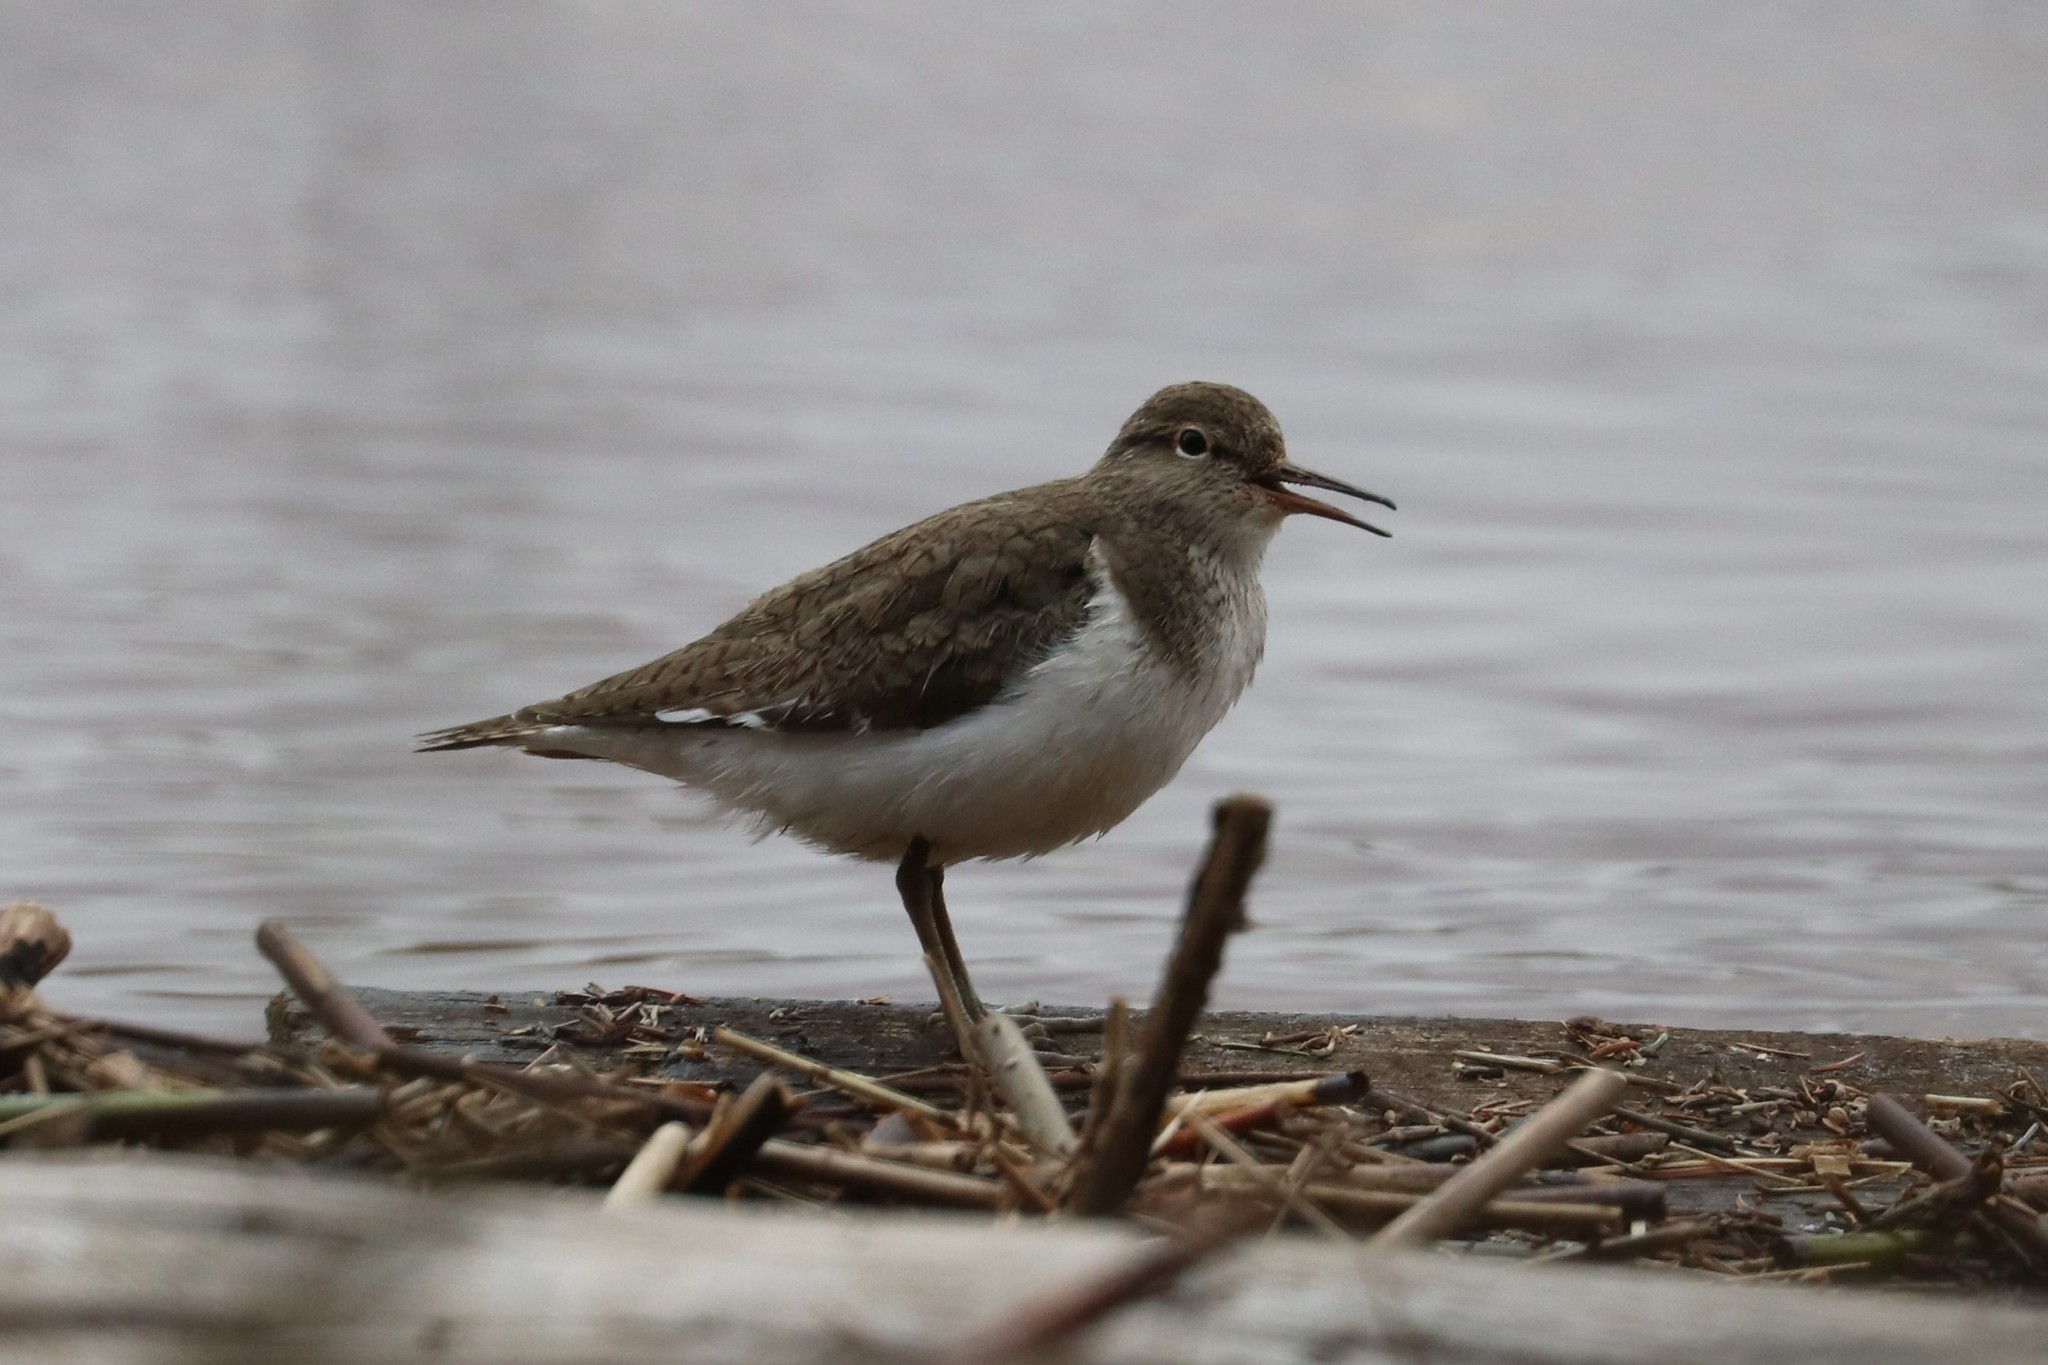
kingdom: Animalia
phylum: Chordata
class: Aves
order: Charadriiformes
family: Scolopacidae
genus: Actitis
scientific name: Actitis hypoleucos
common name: Common sandpiper
